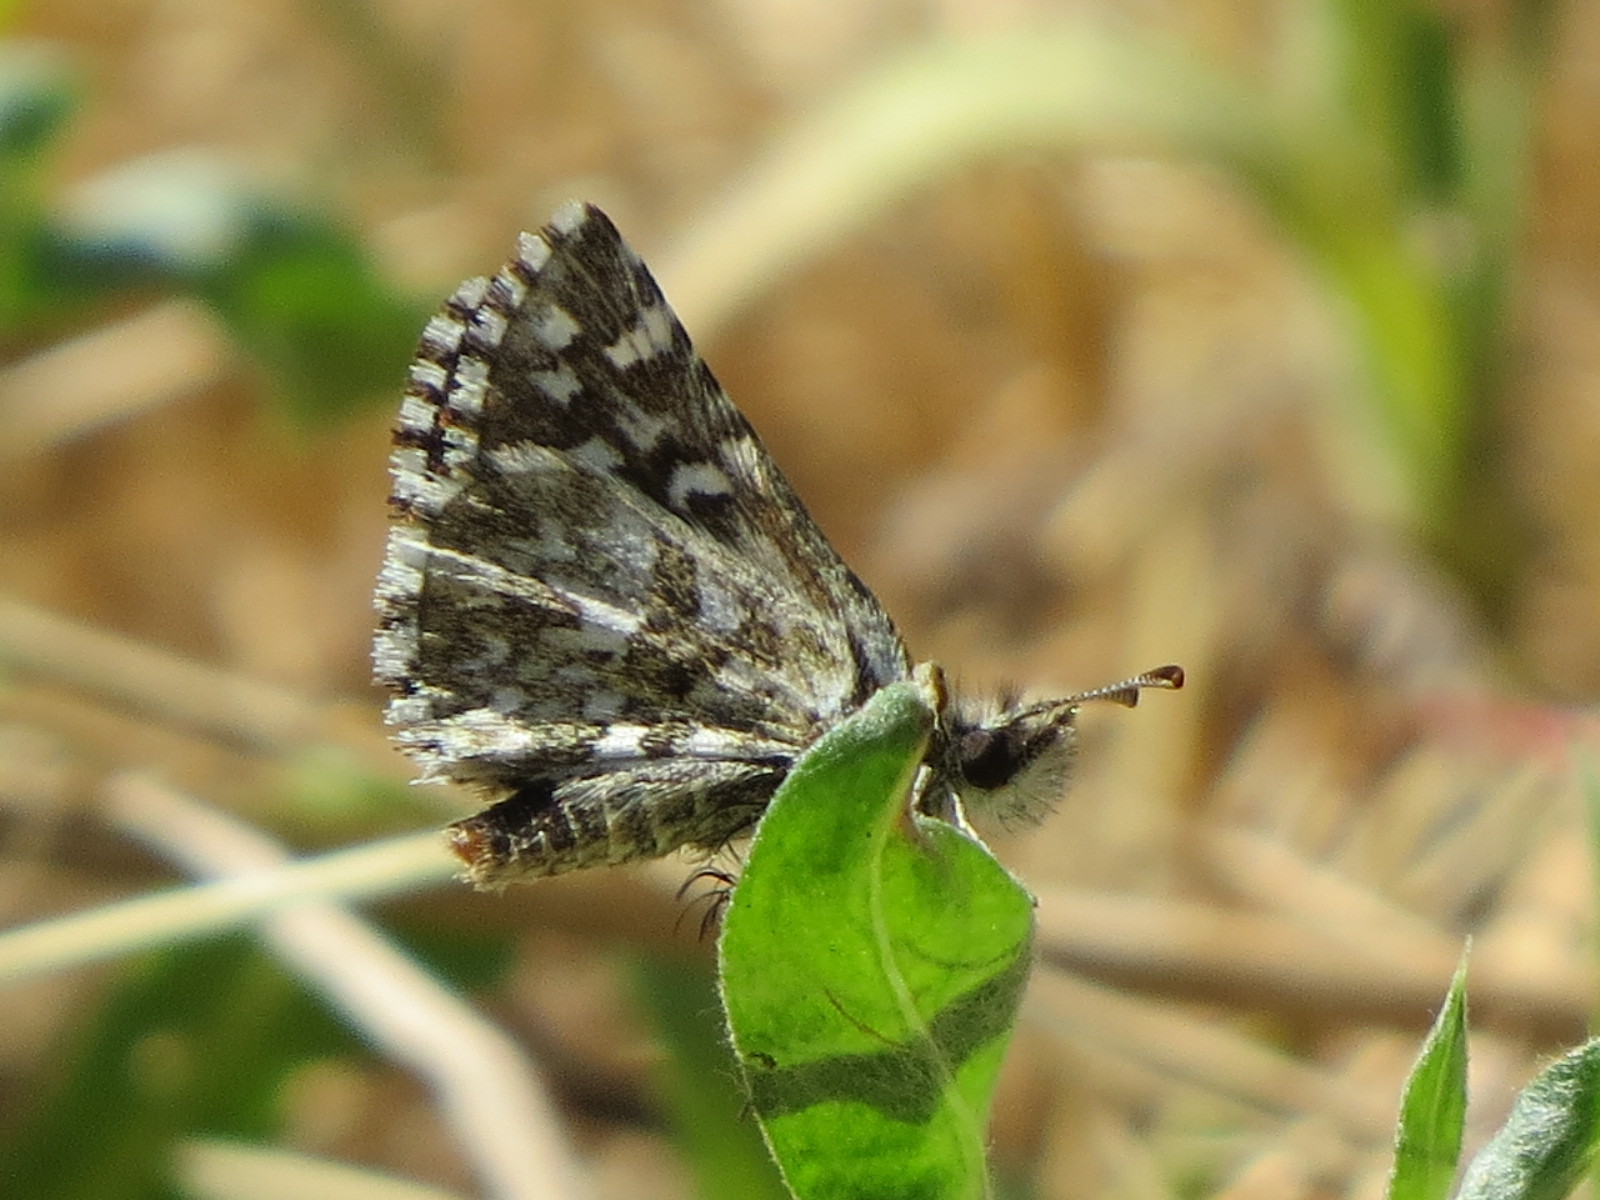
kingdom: Animalia
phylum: Arthropoda
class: Insecta
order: Lepidoptera
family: Hesperiidae
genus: Pyrgus
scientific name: Pyrgus ruralis
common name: Two-banded checkered-skipper
